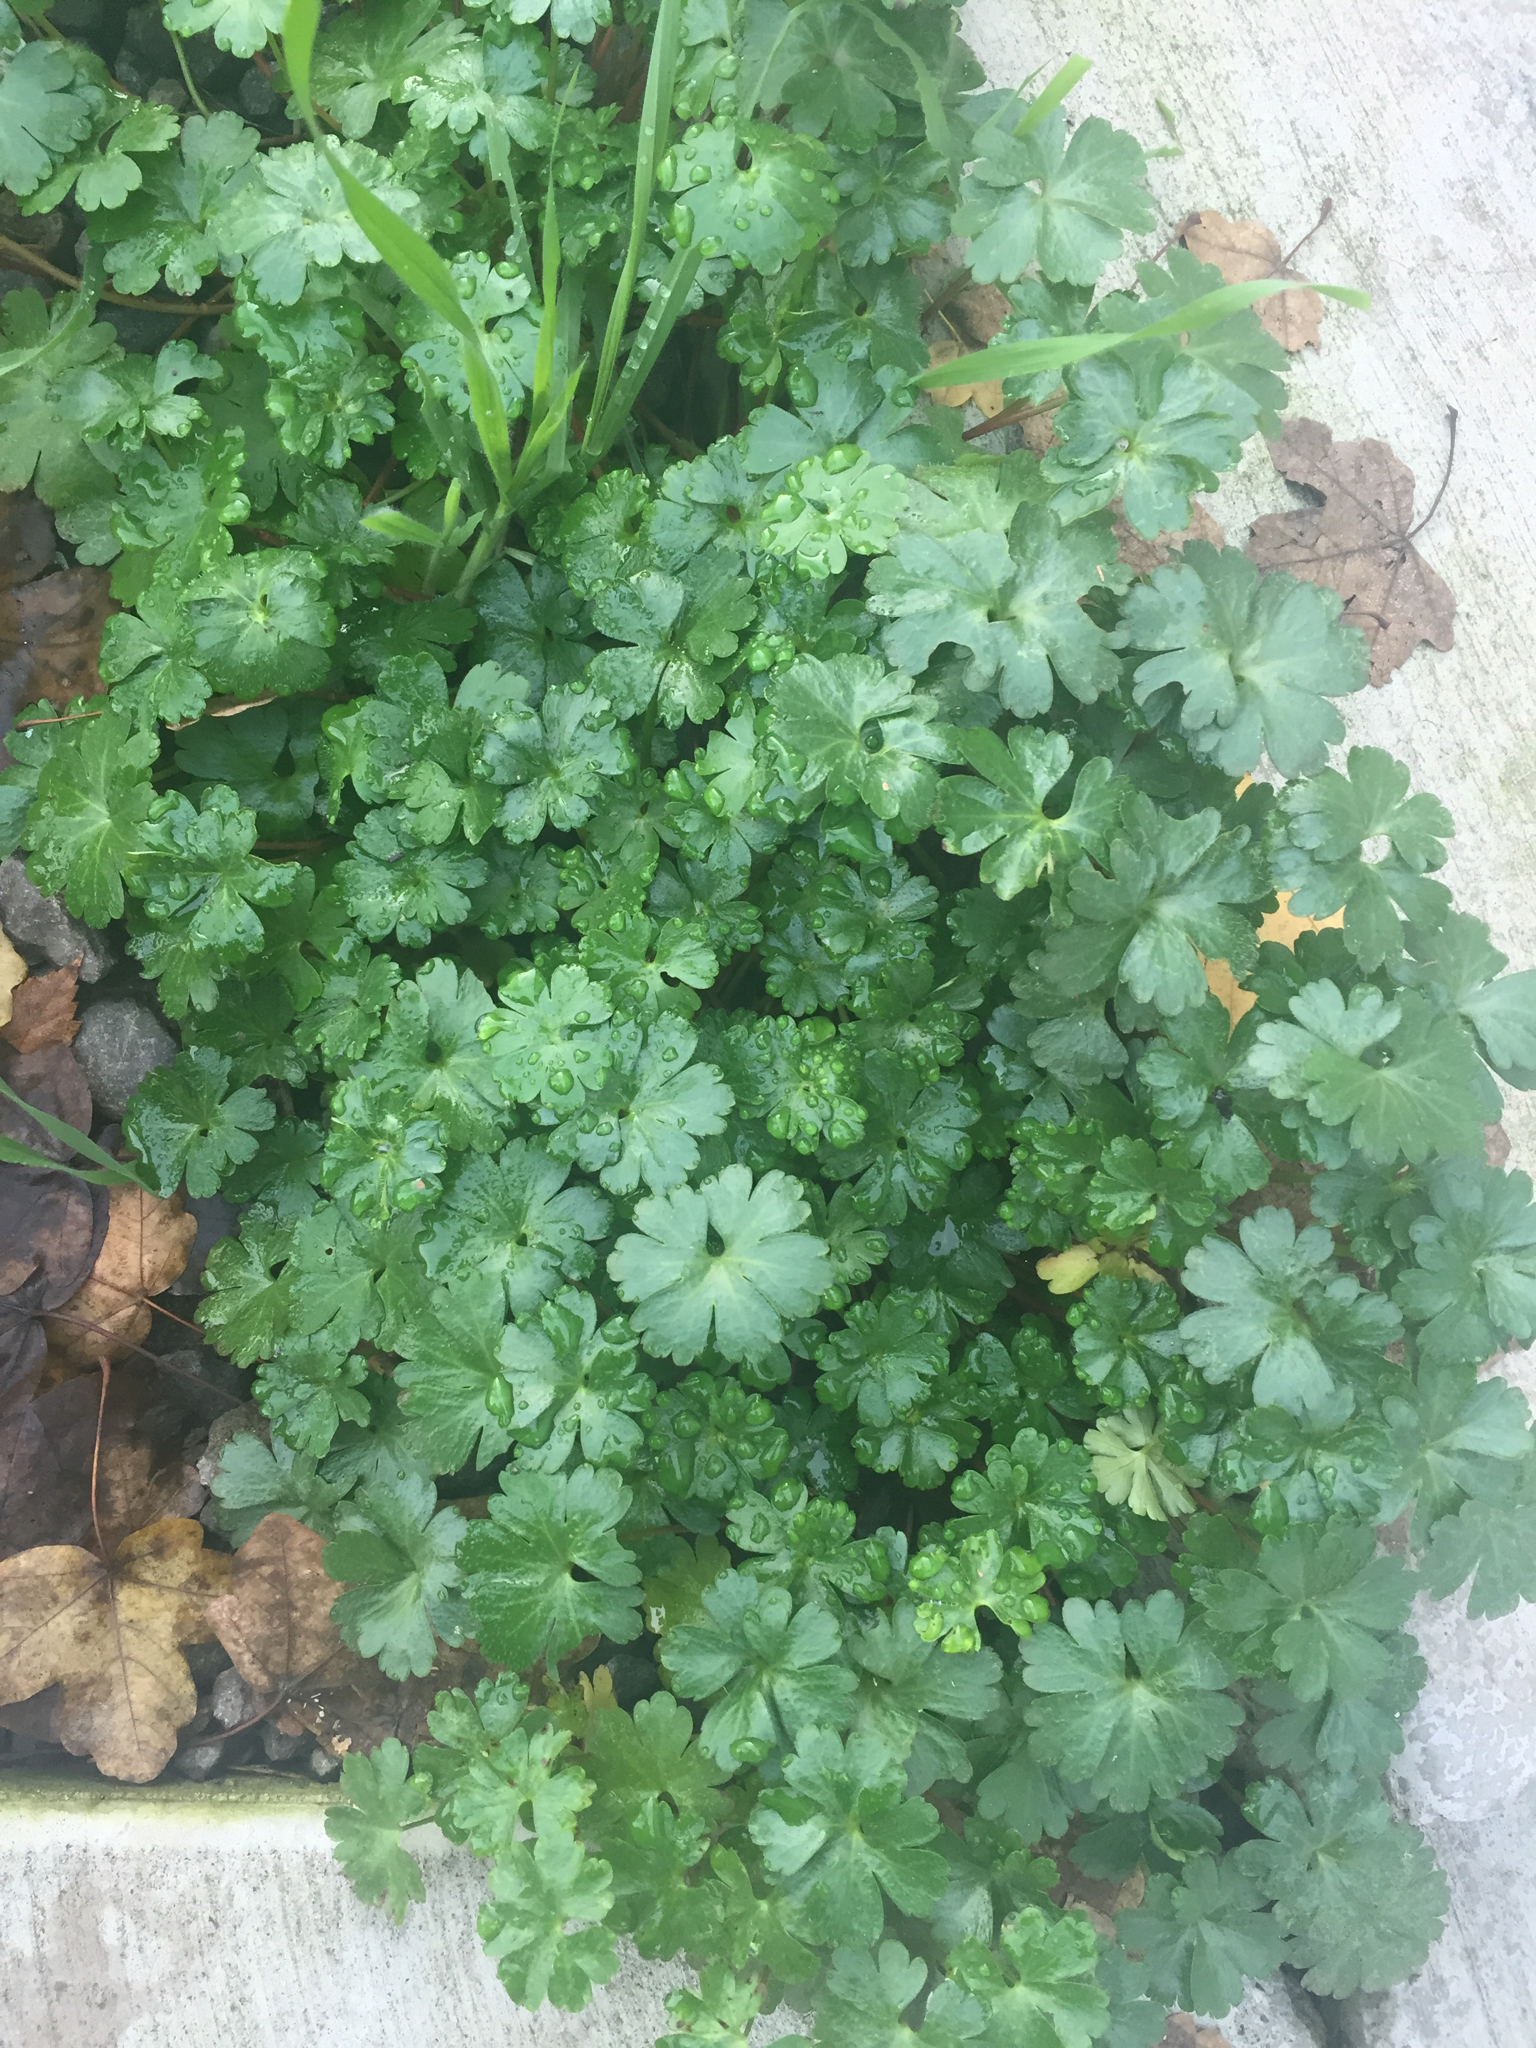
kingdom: Plantae
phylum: Tracheophyta
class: Magnoliopsida
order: Geraniales
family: Geraniaceae
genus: Geranium
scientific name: Geranium lucidum
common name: Shining crane's-bill
